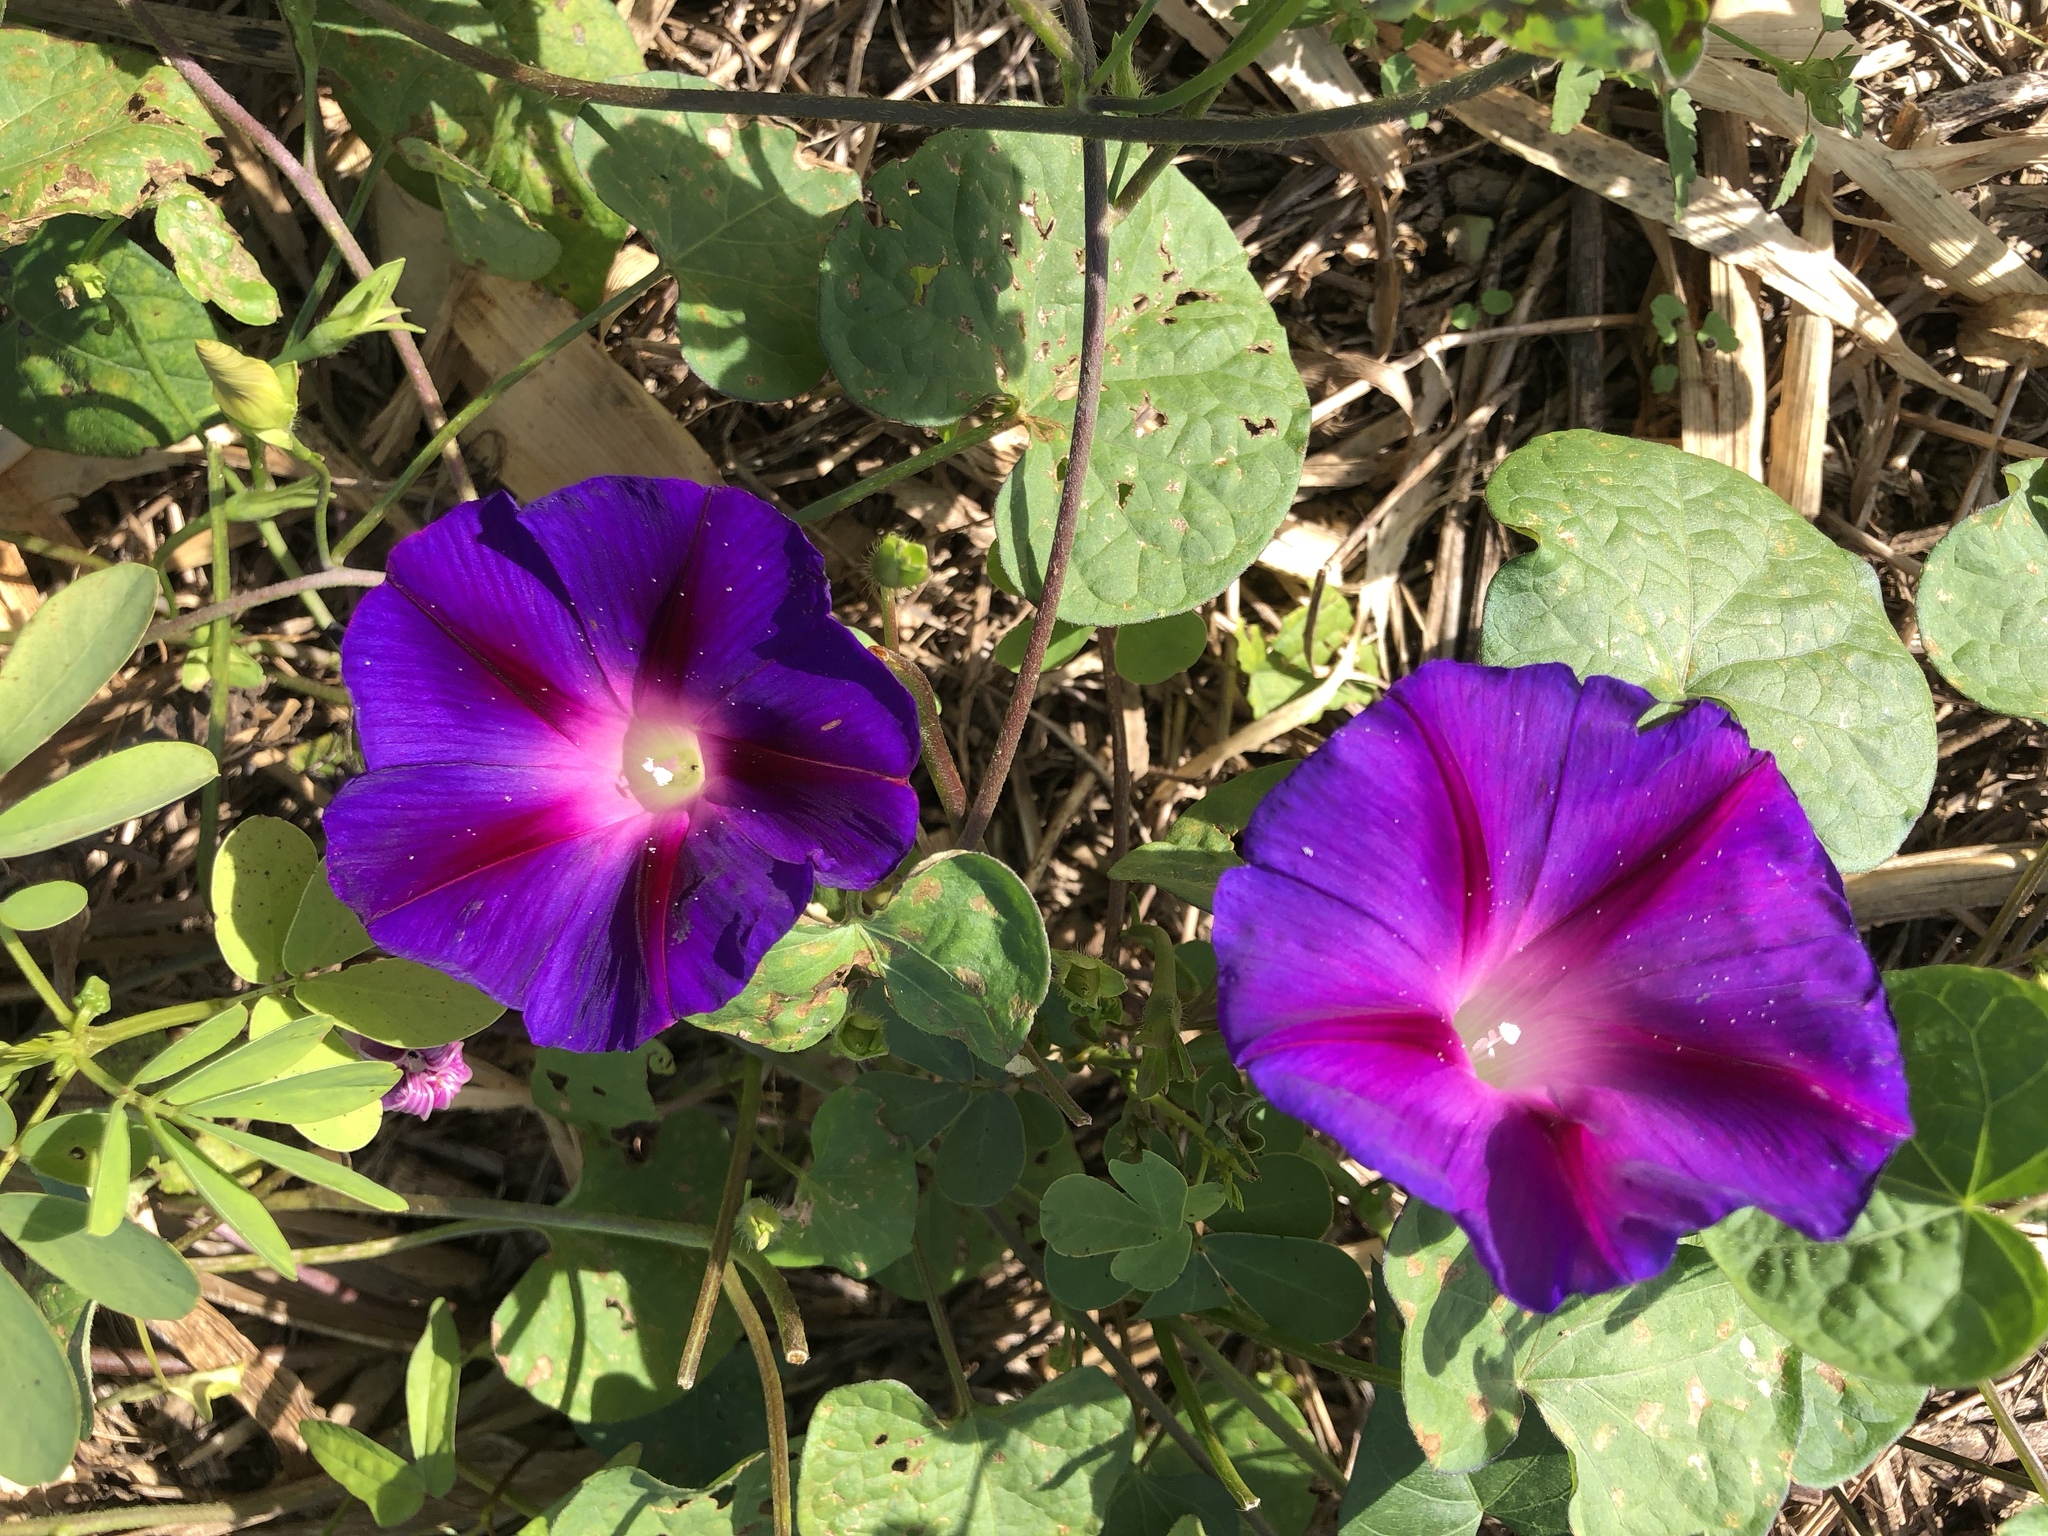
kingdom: Plantae
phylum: Tracheophyta
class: Magnoliopsida
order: Solanales
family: Convolvulaceae
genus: Ipomoea
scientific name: Ipomoea purpurea
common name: Common morning-glory
